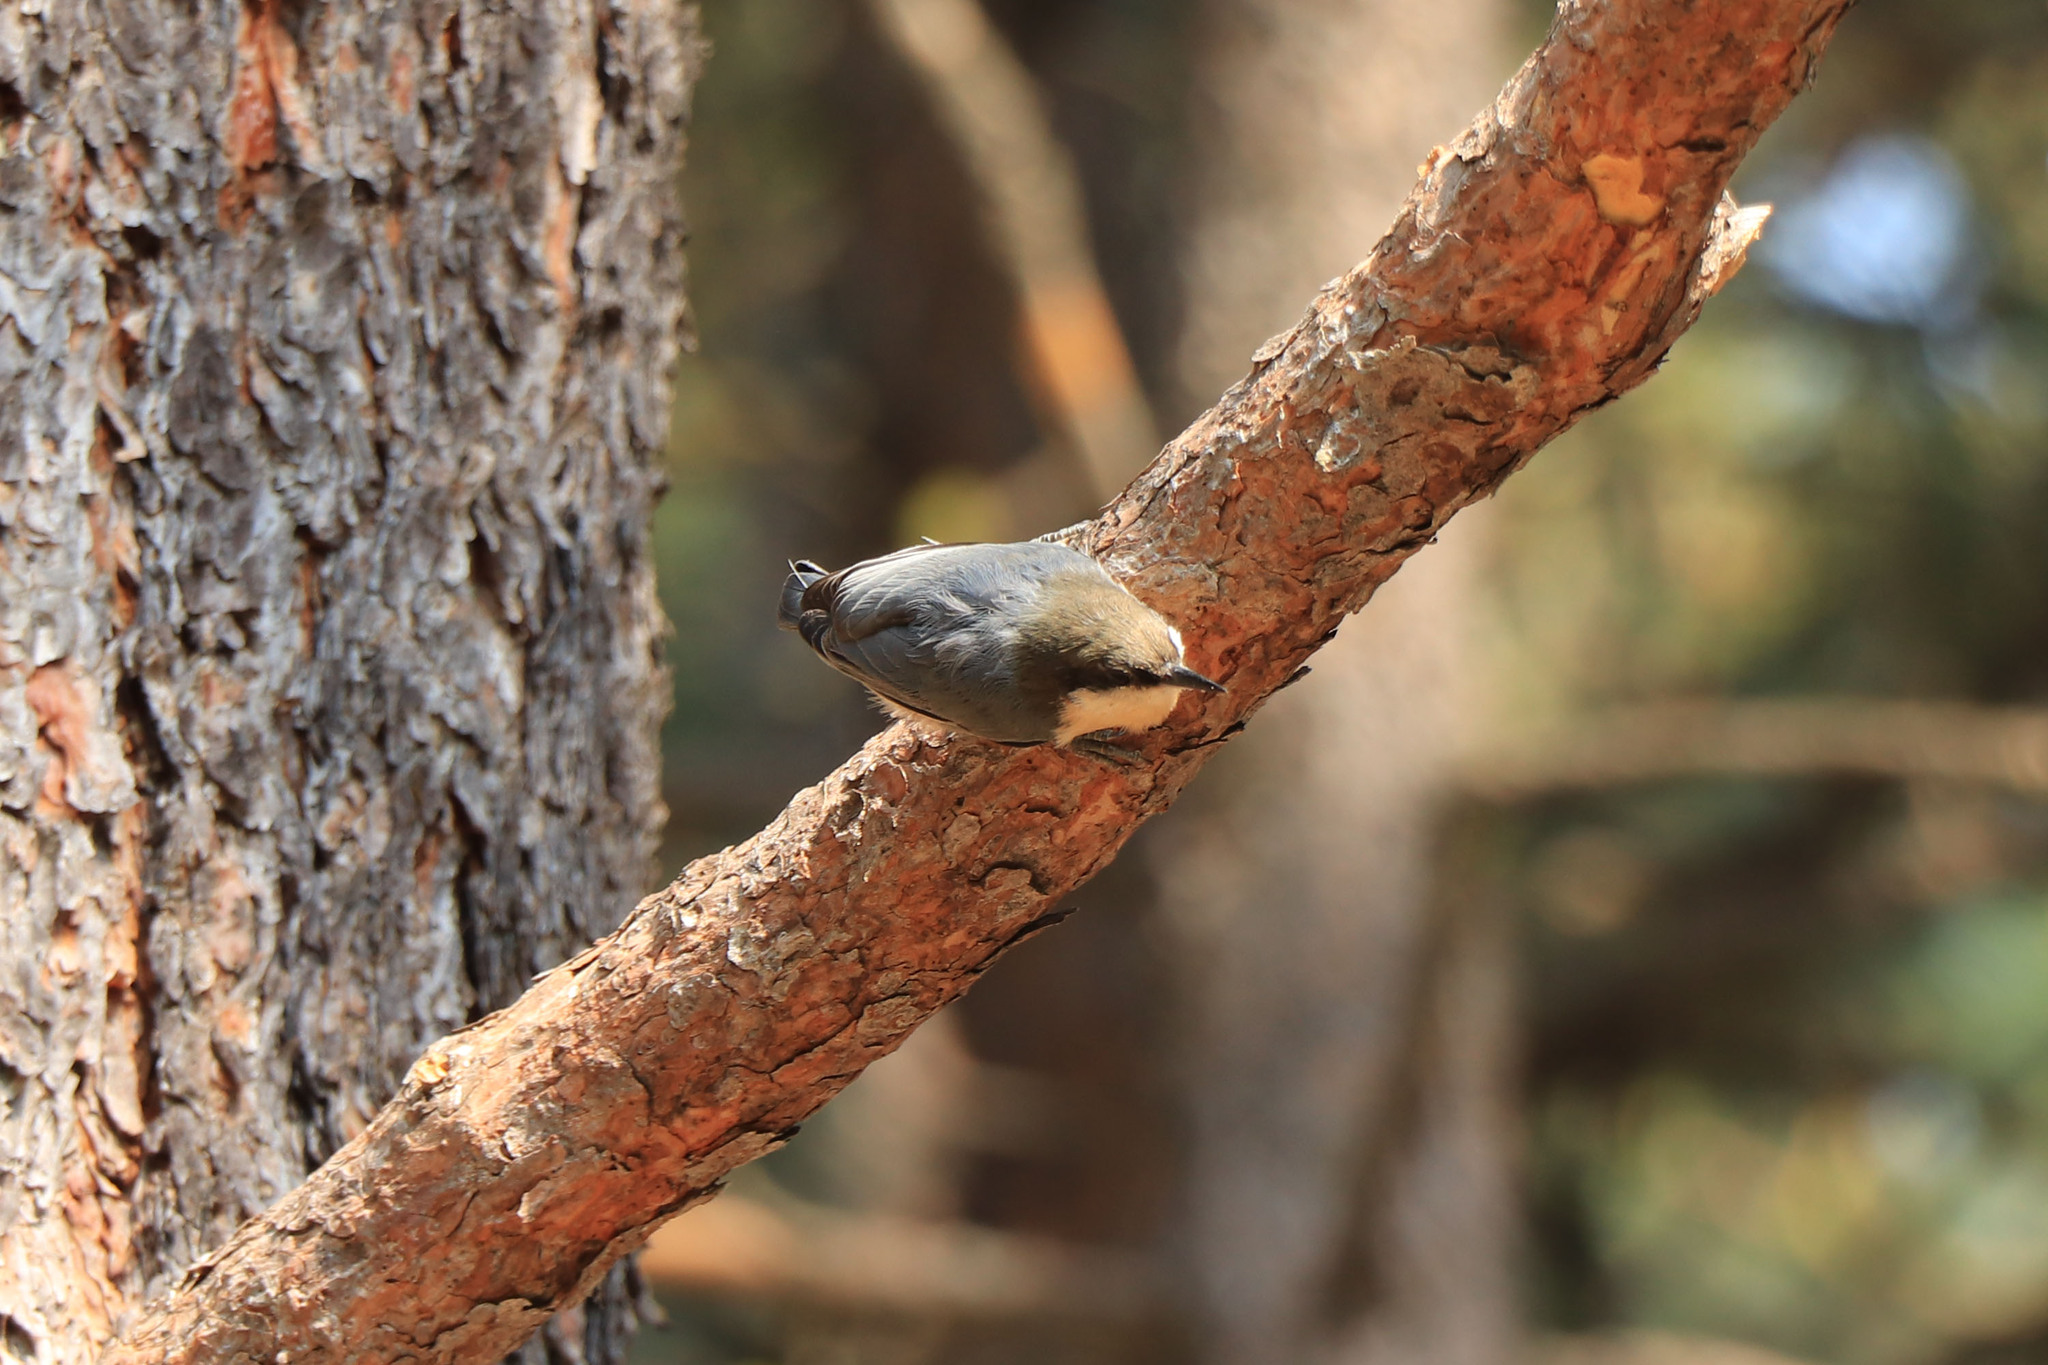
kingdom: Animalia
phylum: Chordata
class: Aves
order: Passeriformes
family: Sittidae
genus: Sitta
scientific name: Sitta pygmaea
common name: Pygmy nuthatch
